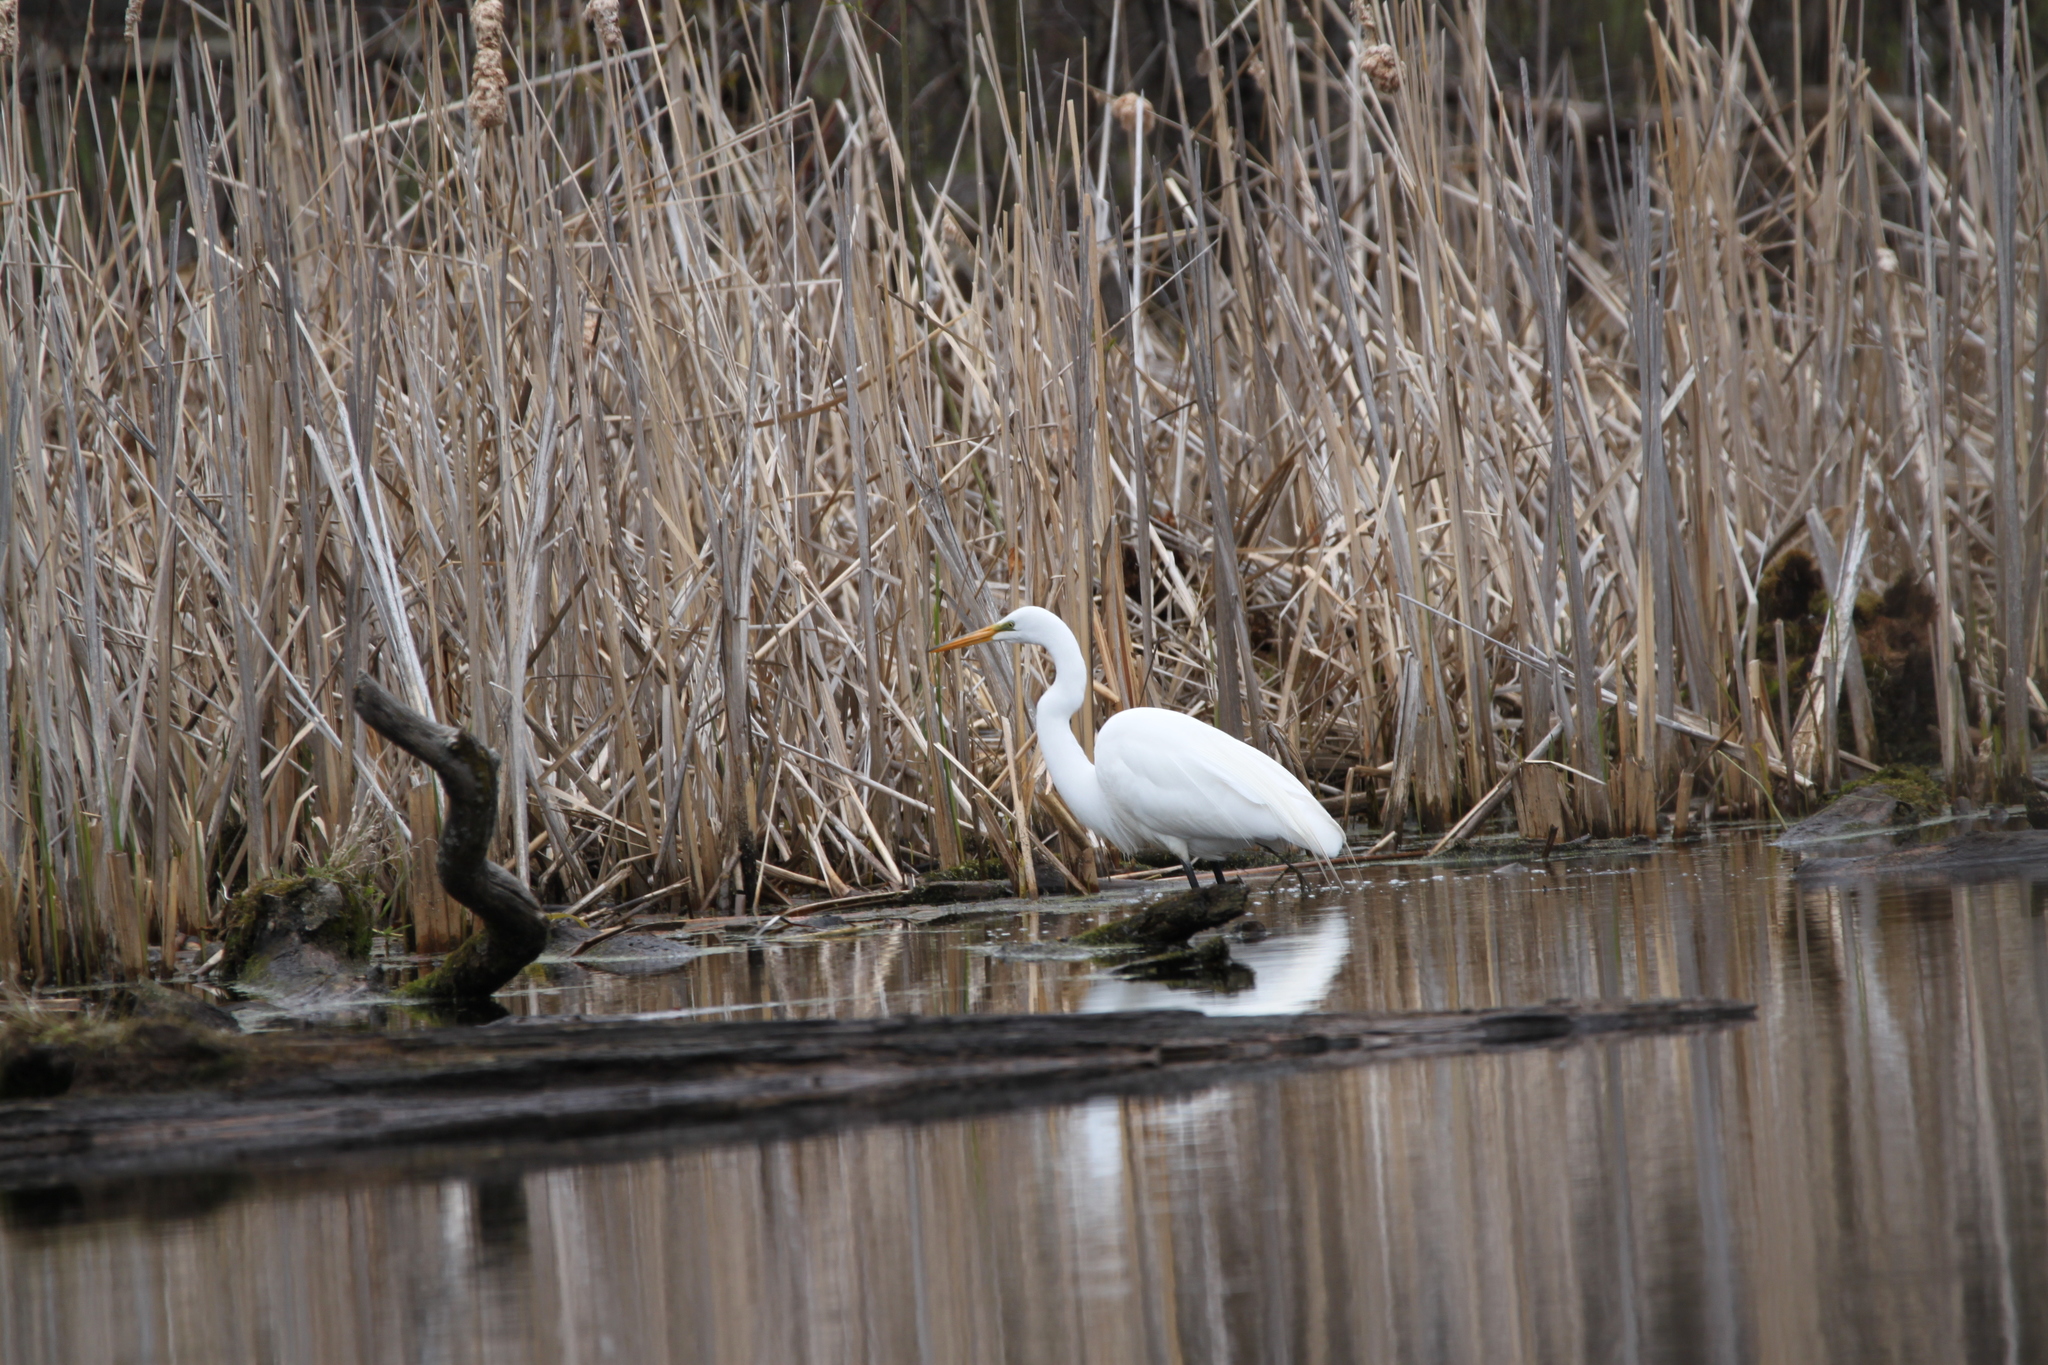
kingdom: Animalia
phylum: Chordata
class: Aves
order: Pelecaniformes
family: Ardeidae
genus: Ardea
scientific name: Ardea alba
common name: Great egret
